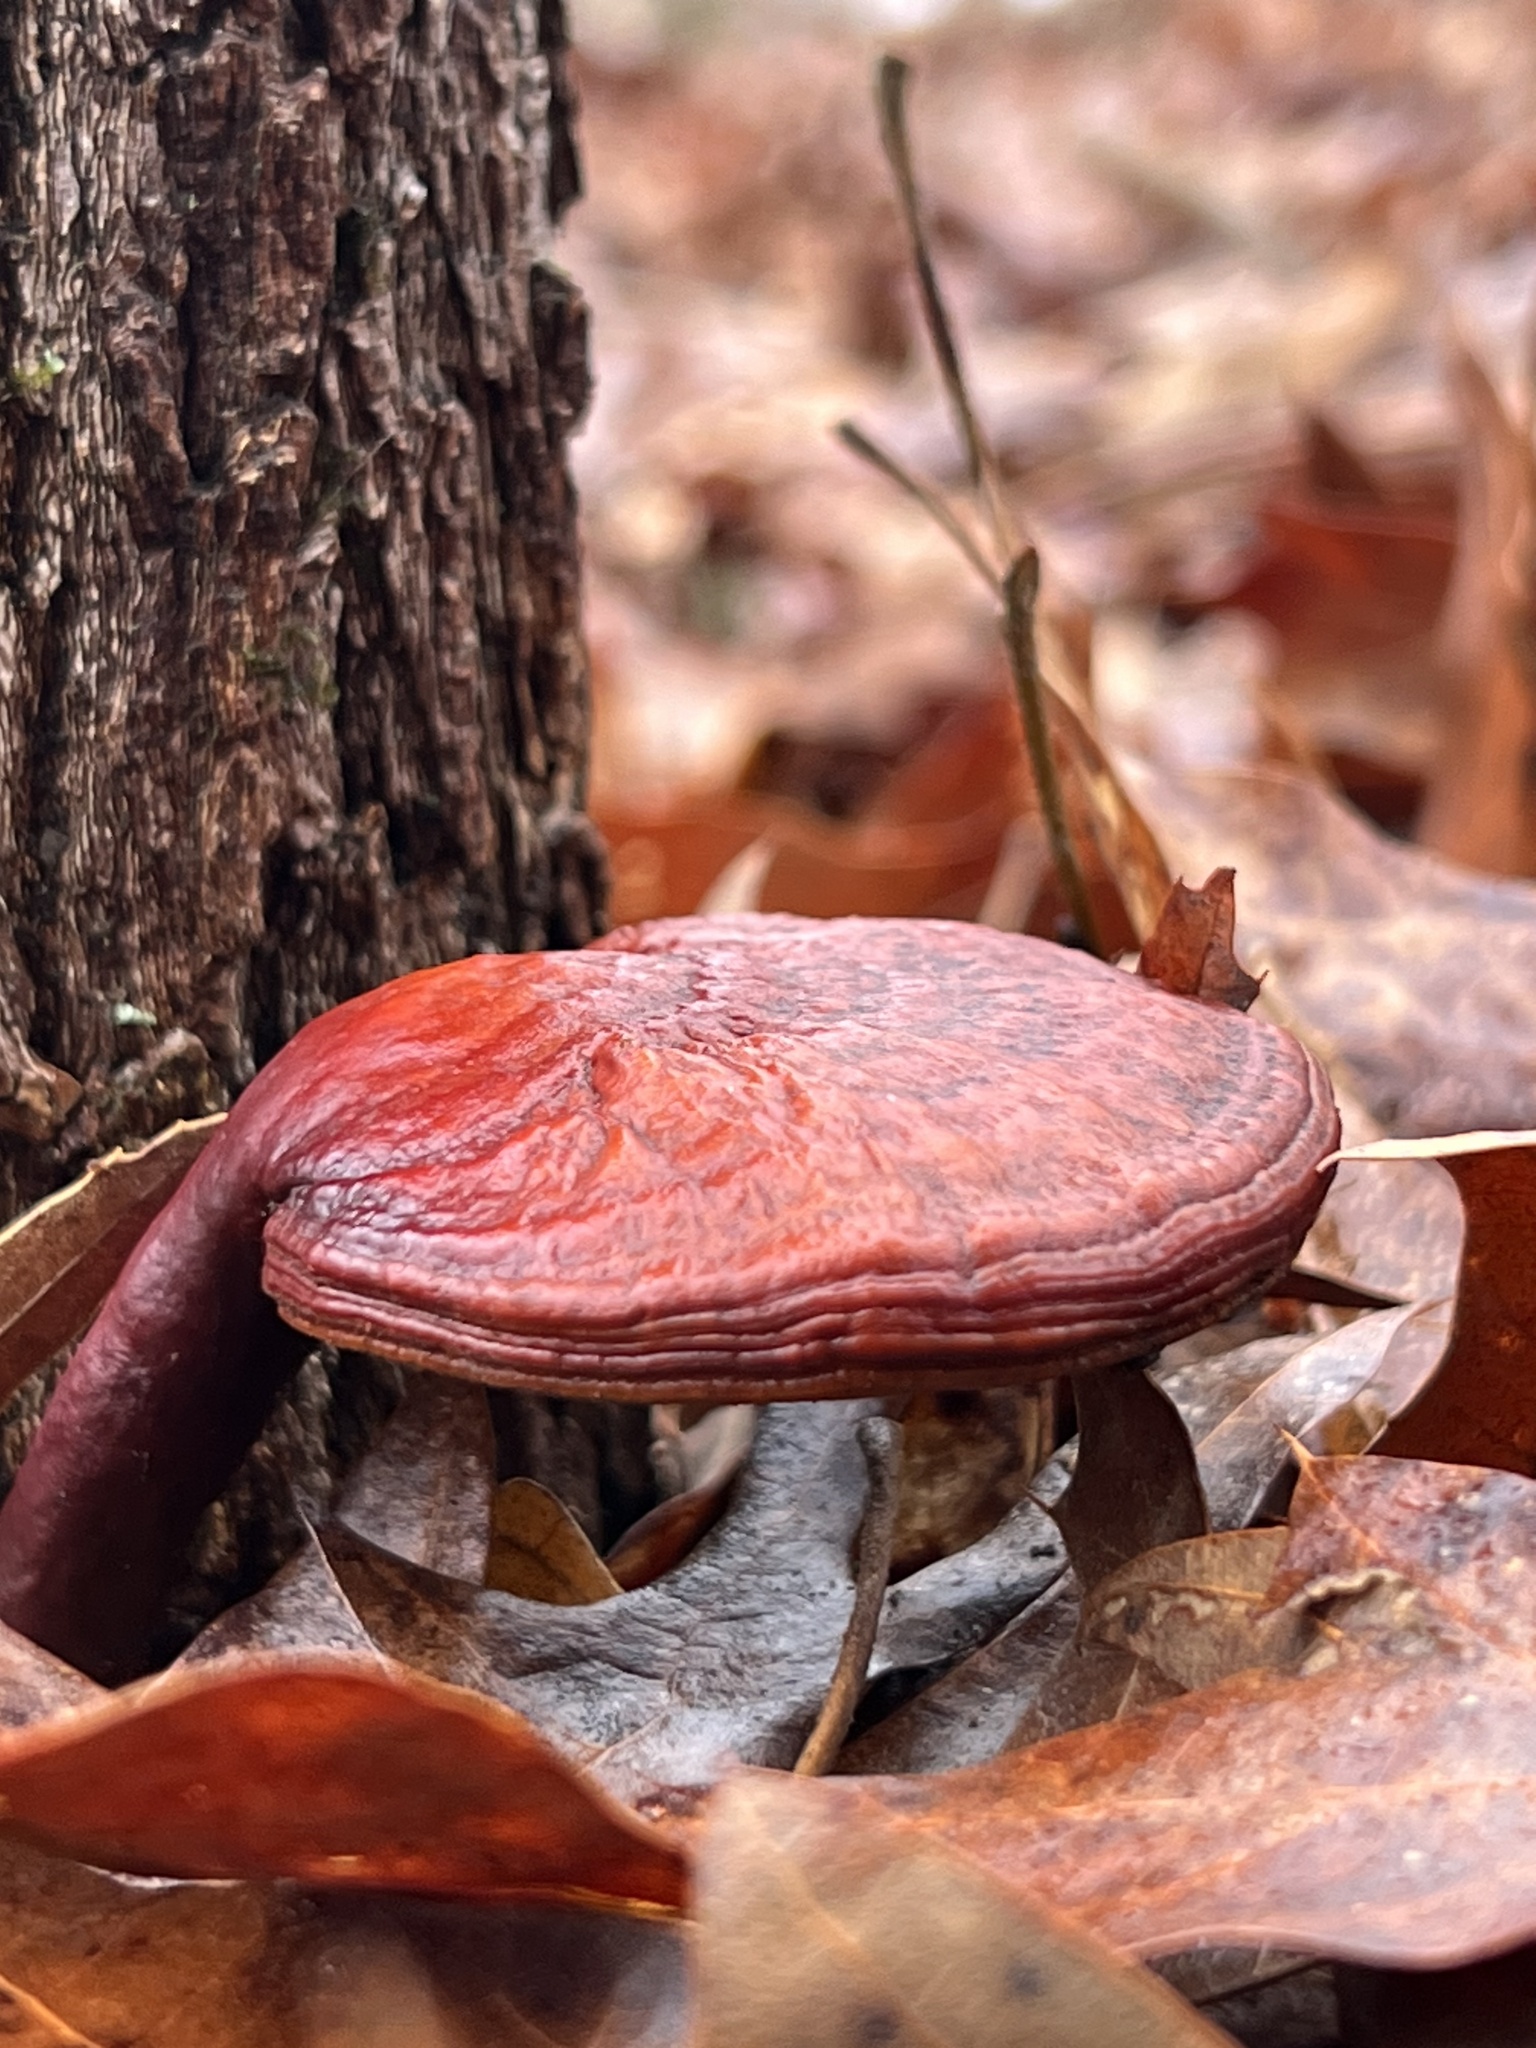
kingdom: Fungi
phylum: Basidiomycota
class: Agaricomycetes
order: Polyporales
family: Polyporaceae
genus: Ganoderma
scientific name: Ganoderma curtisii
